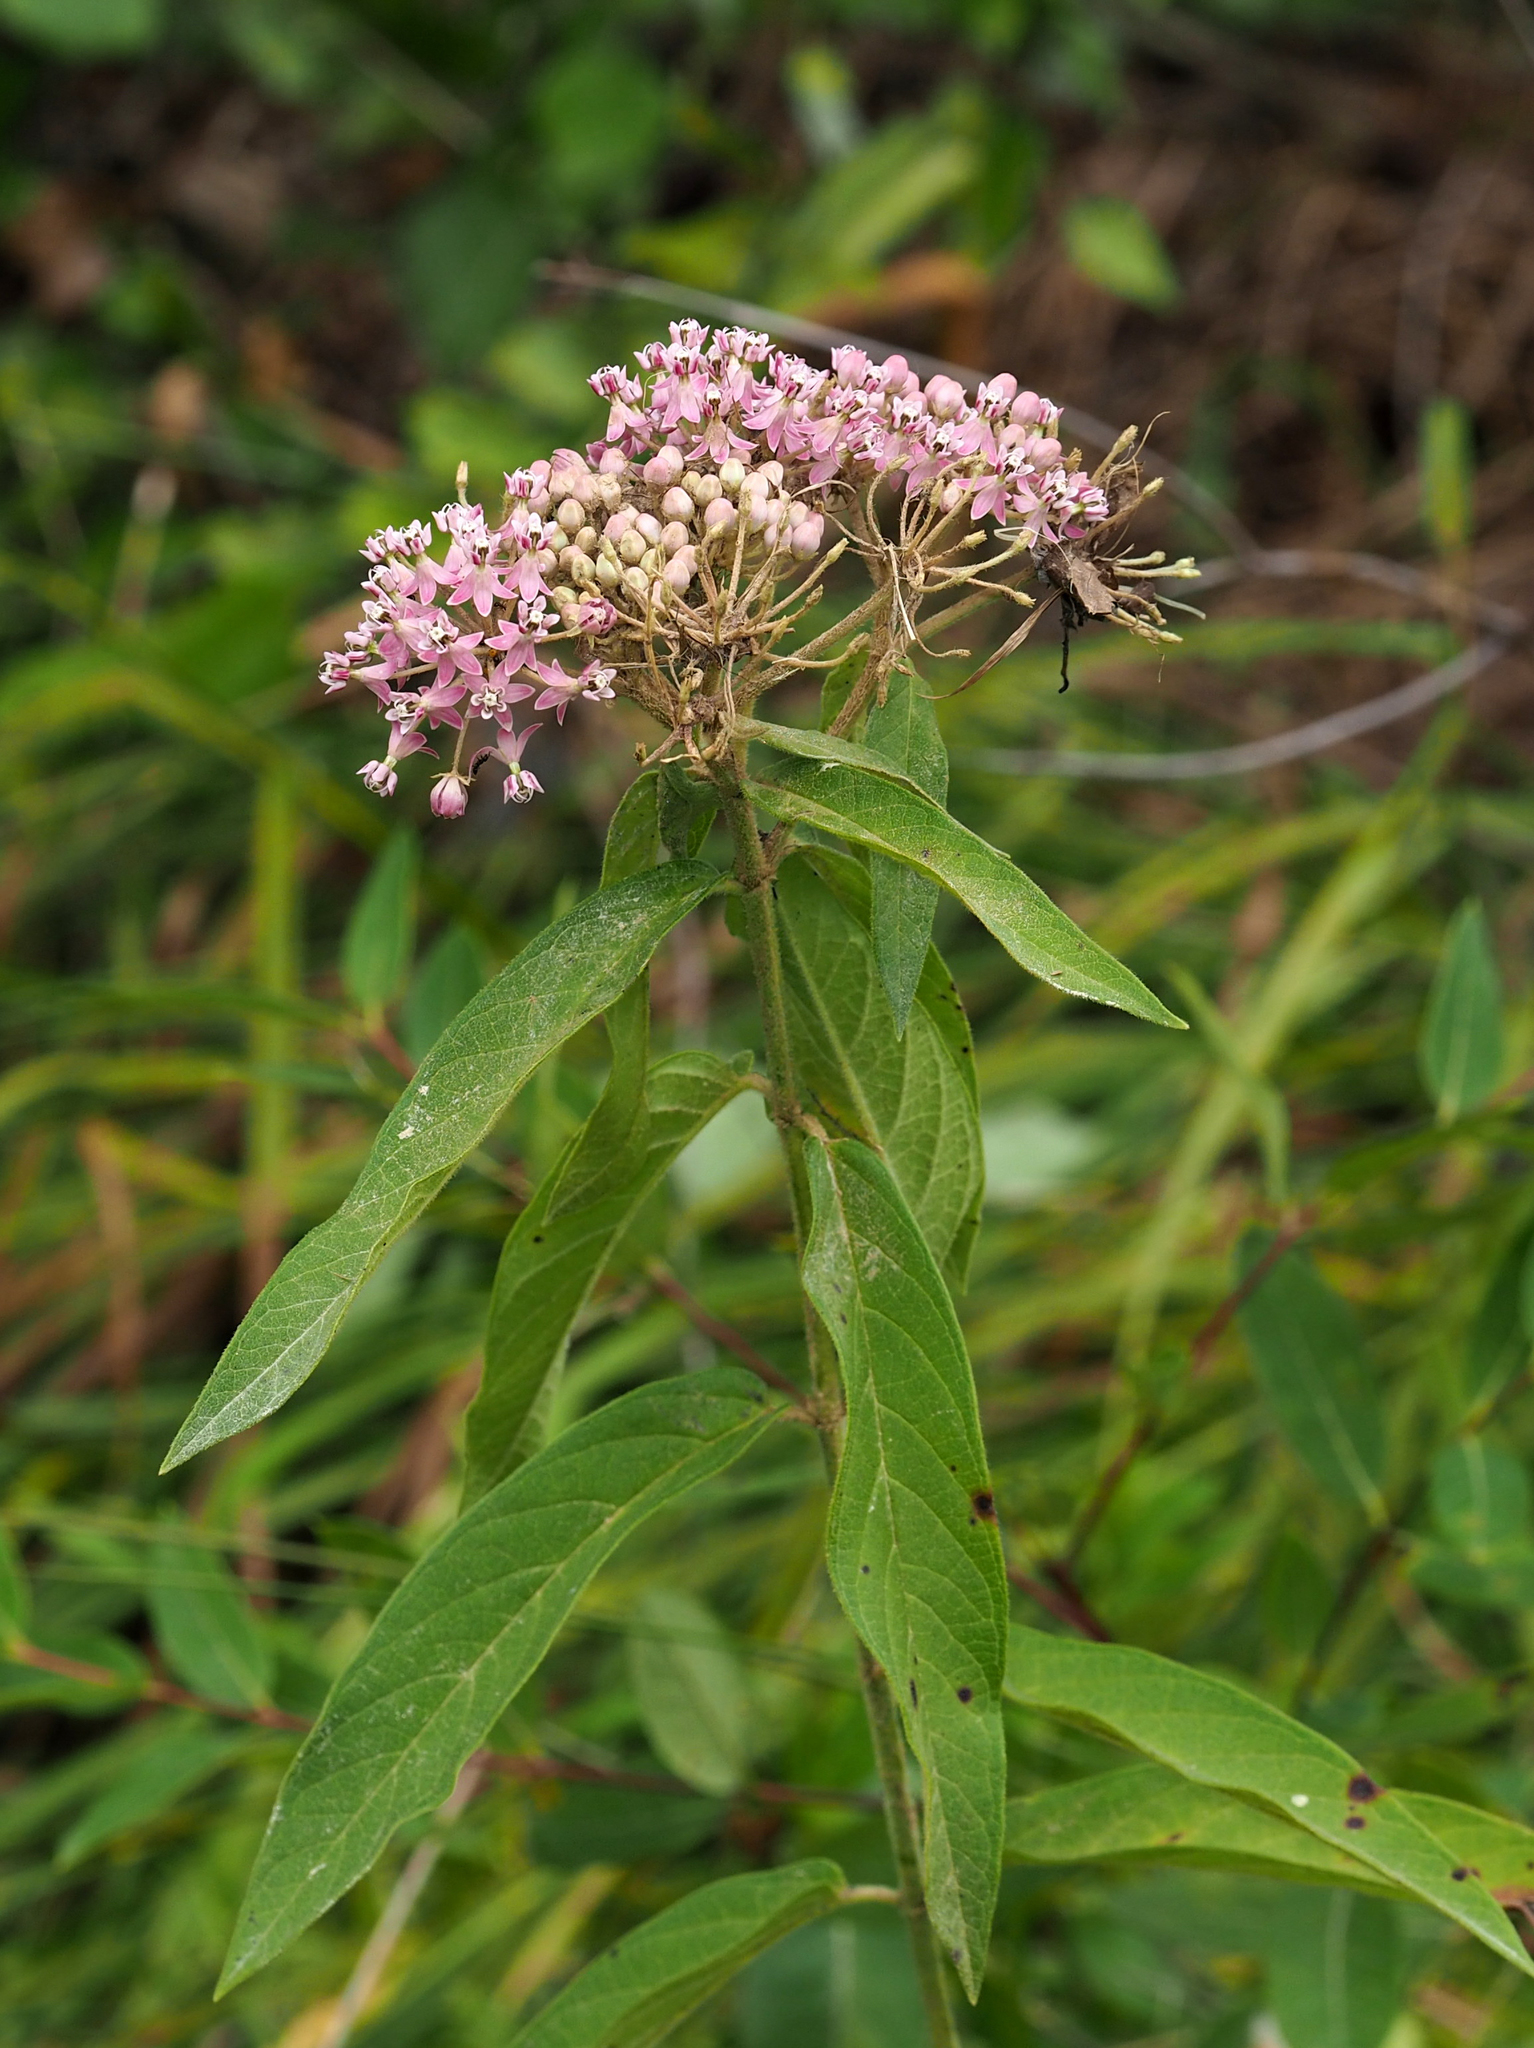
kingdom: Plantae
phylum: Tracheophyta
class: Magnoliopsida
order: Gentianales
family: Apocynaceae
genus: Asclepias
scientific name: Asclepias incarnata
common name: Swamp milkweed
